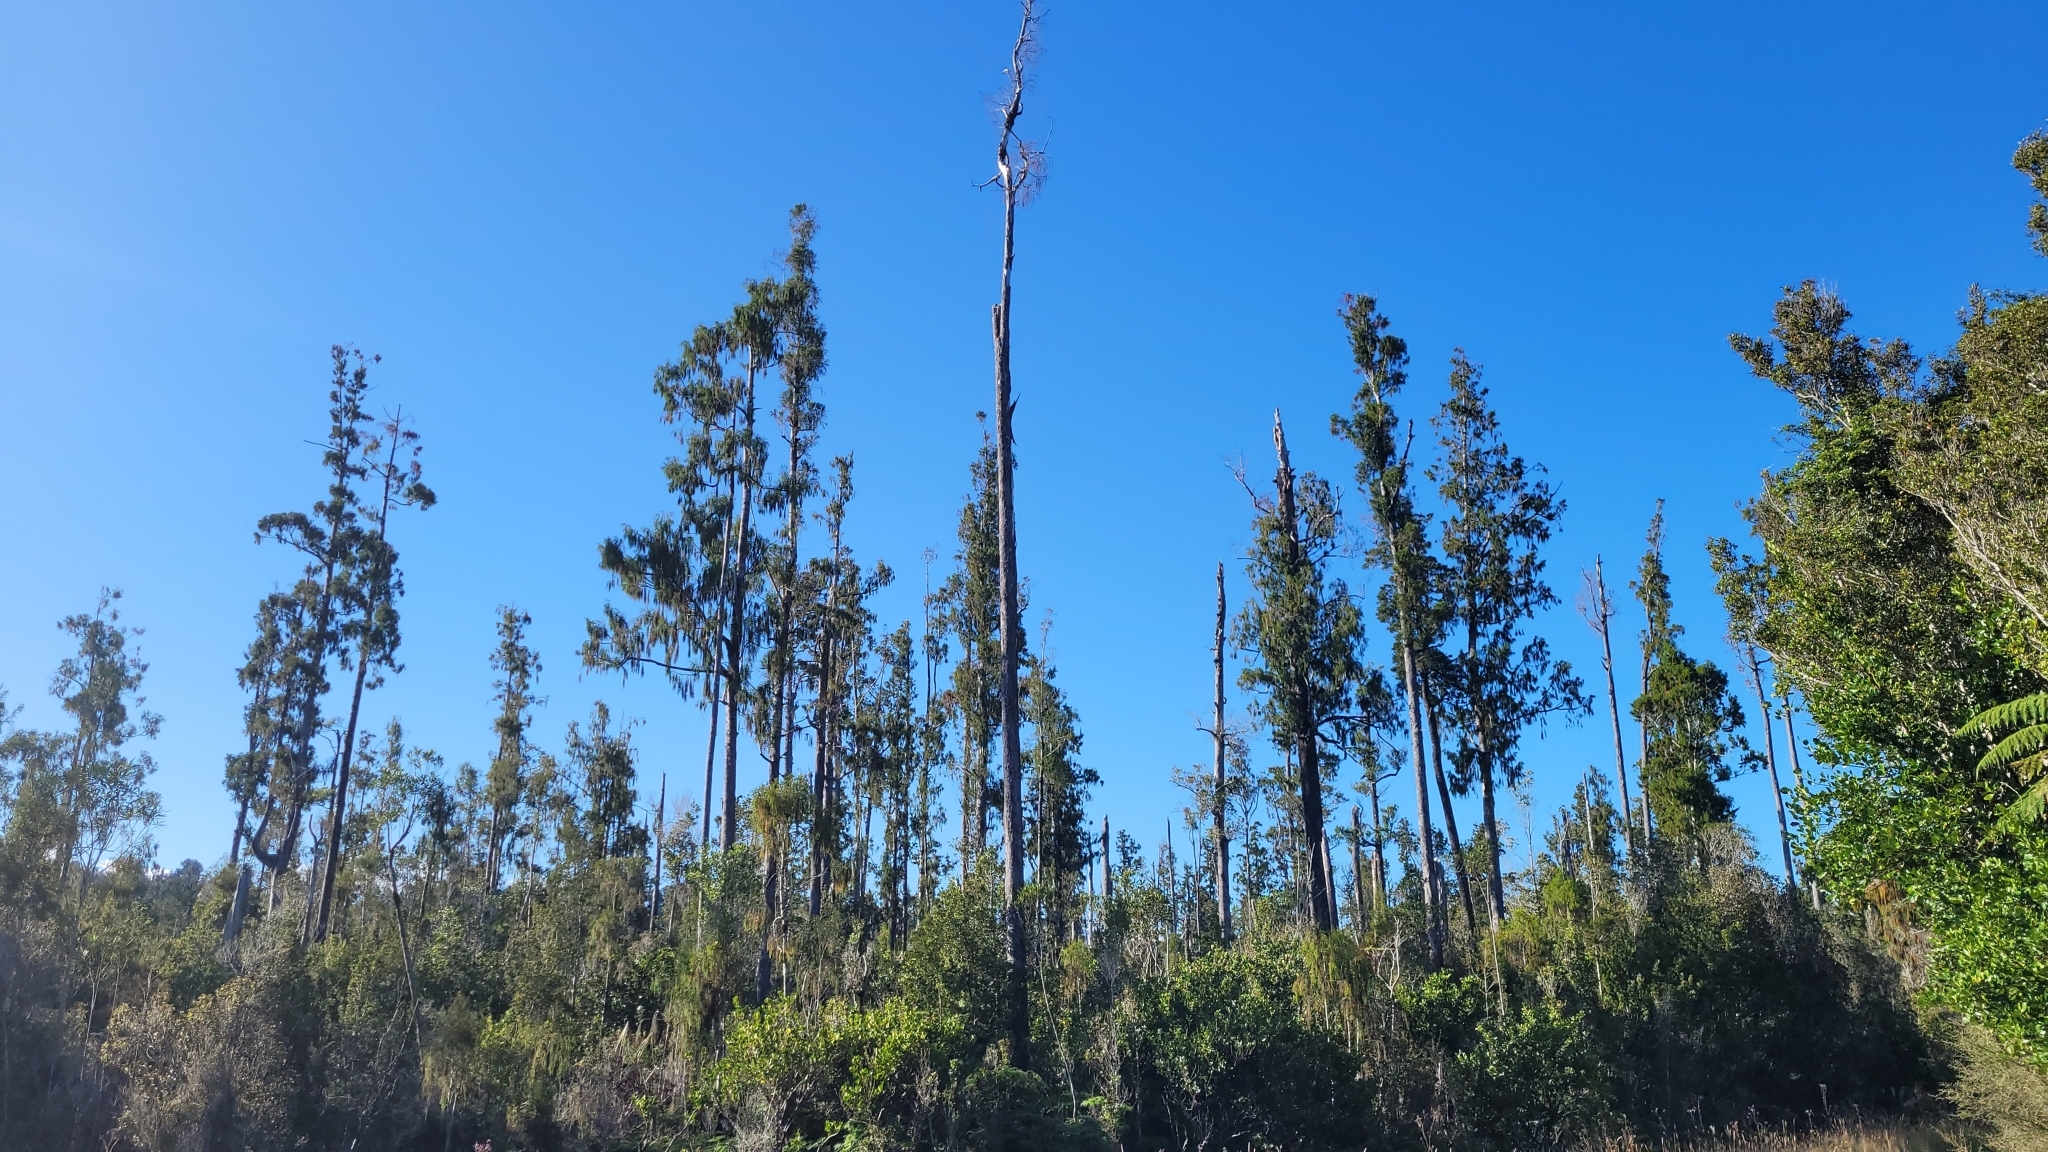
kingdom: Plantae
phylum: Tracheophyta
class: Pinopsida
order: Pinales
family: Podocarpaceae
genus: Dacrydium
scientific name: Dacrydium cupressinum
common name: Red pine
